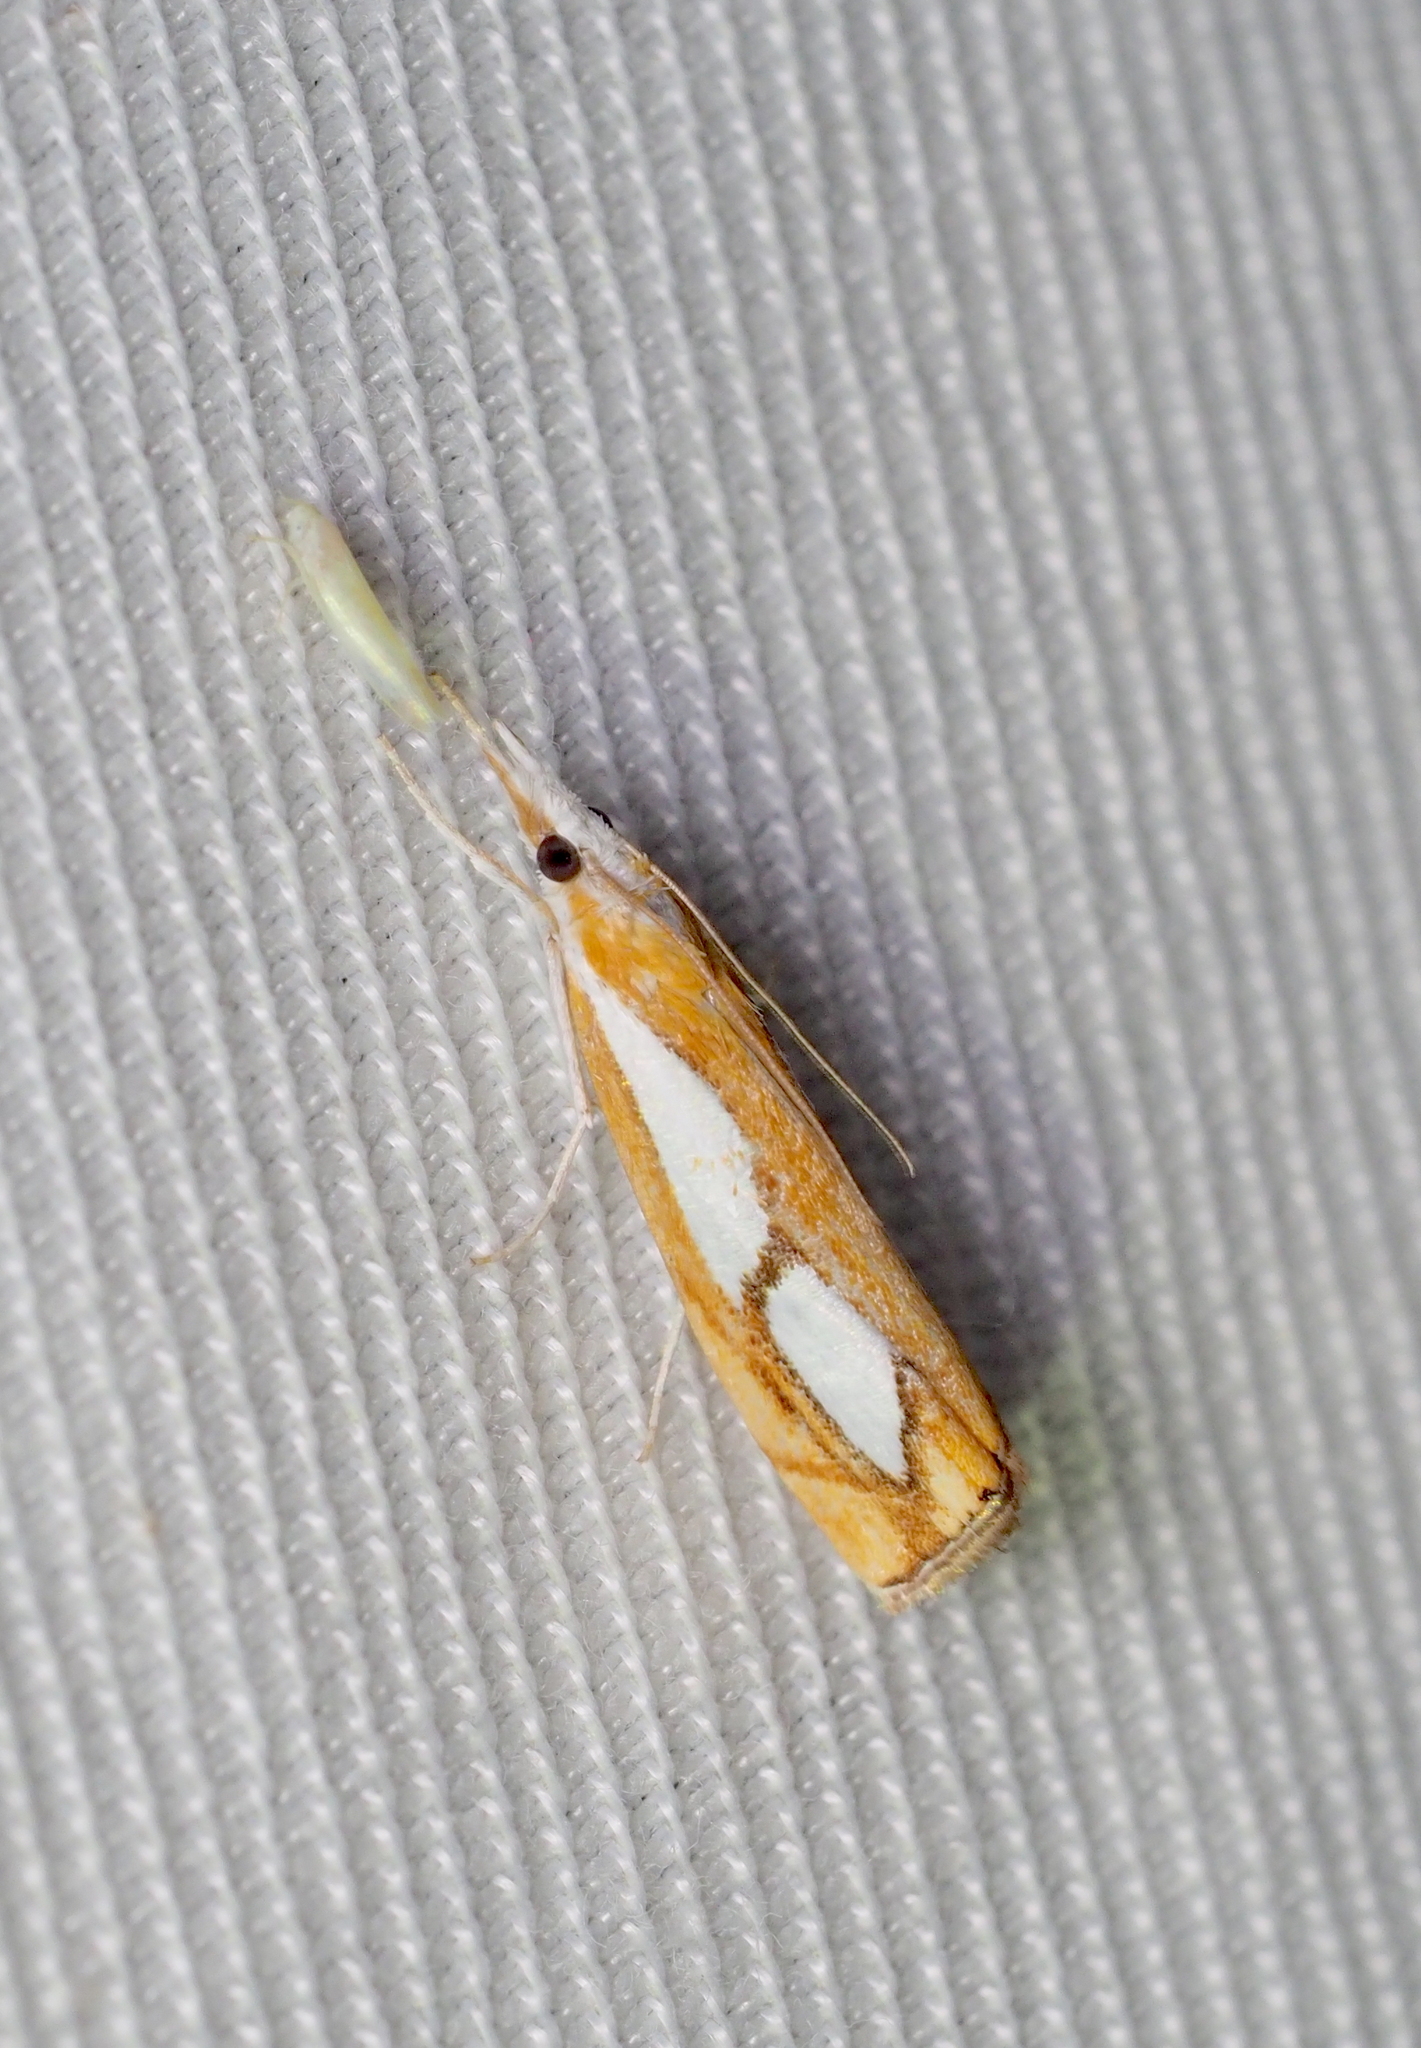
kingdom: Animalia
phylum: Arthropoda
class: Insecta
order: Lepidoptera
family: Crambidae
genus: Catoptria
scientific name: Catoptria pinella
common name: Pearl grass-veneer
